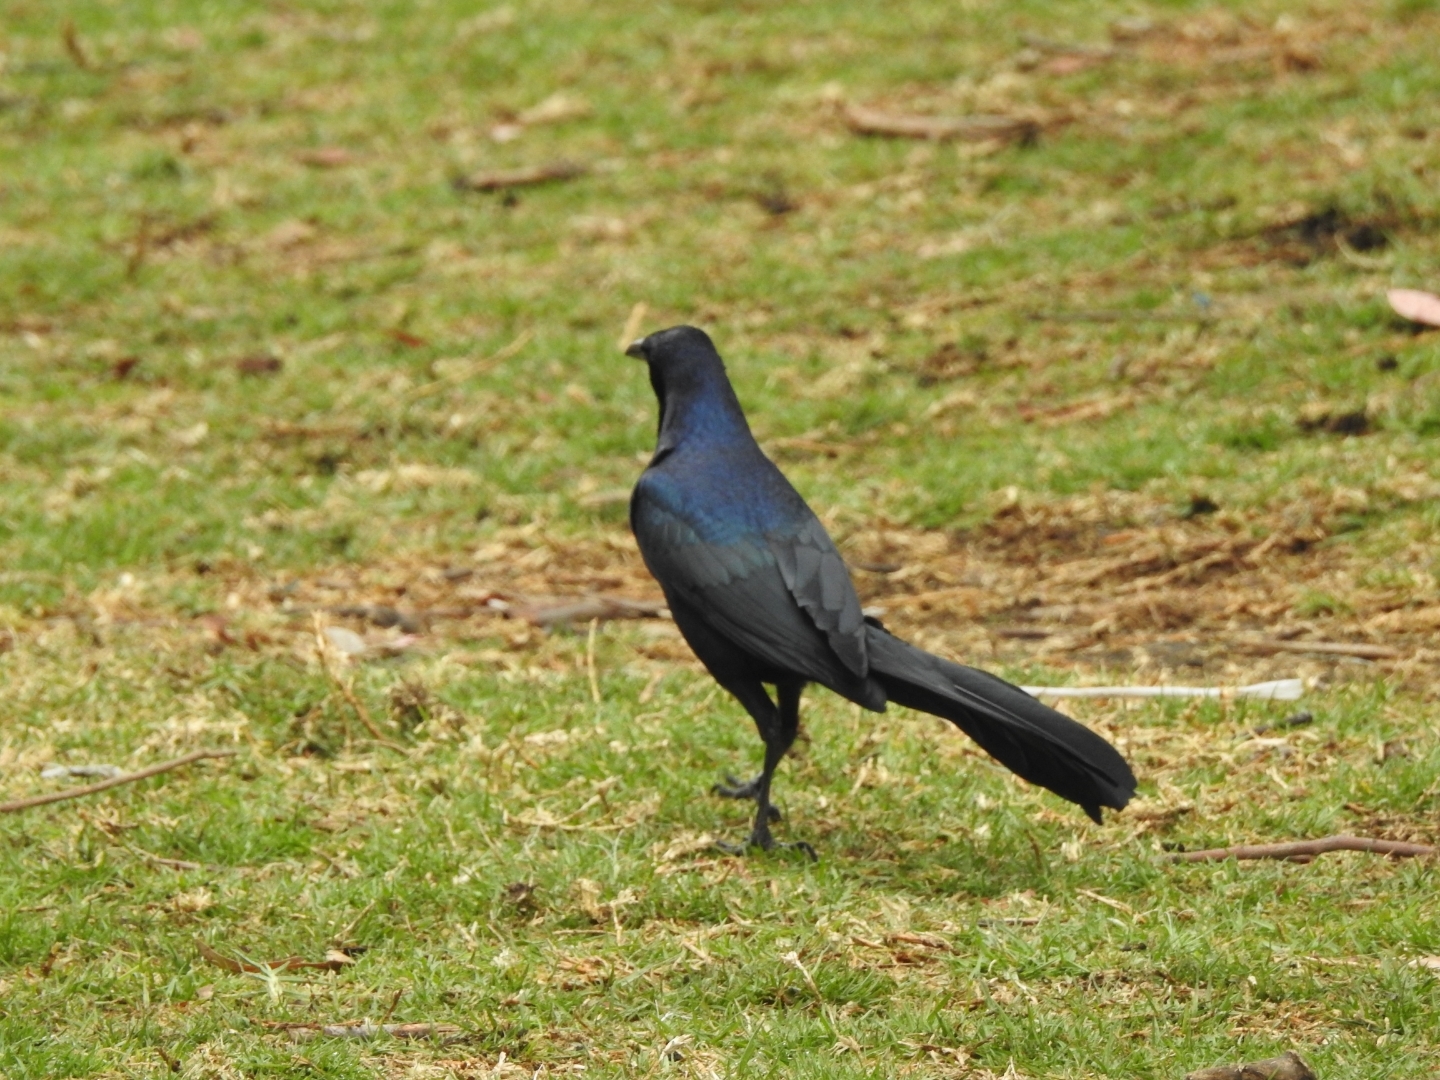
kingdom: Animalia
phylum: Chordata
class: Aves
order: Passeriformes
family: Icteridae
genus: Quiscalus
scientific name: Quiscalus mexicanus
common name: Great-tailed grackle
